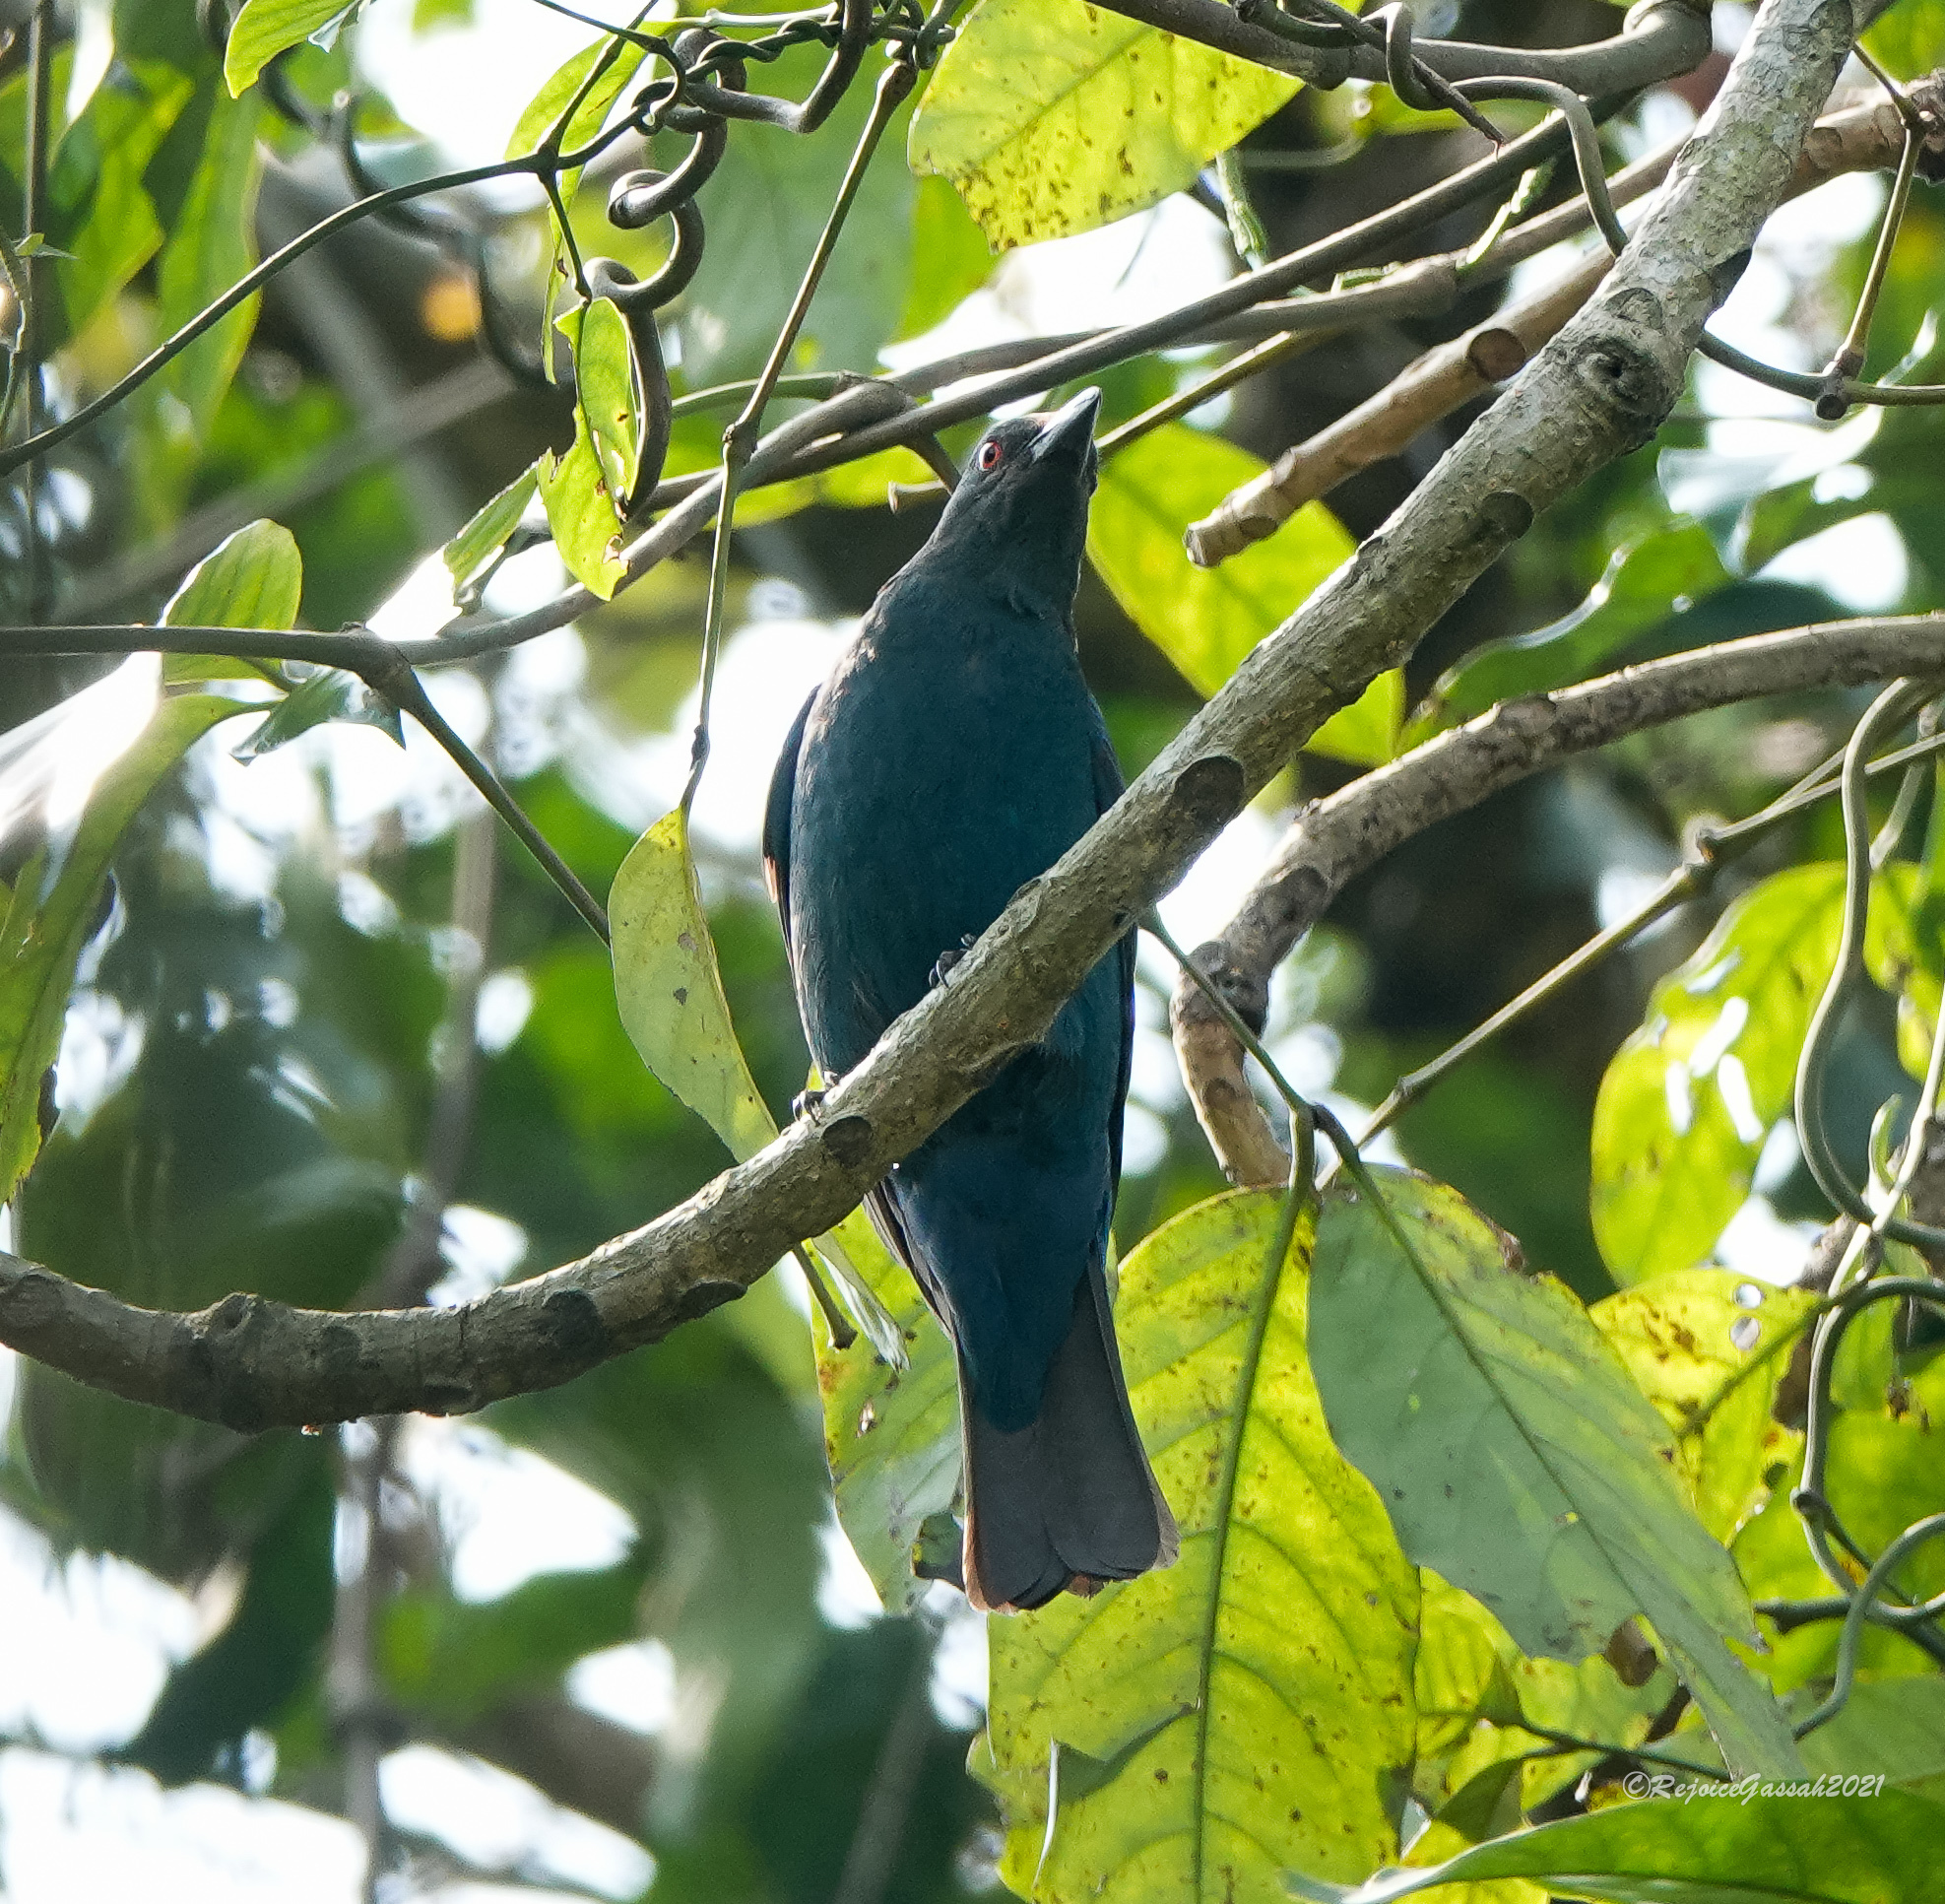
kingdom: Animalia
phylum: Chordata
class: Aves
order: Passeriformes
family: Irenidae
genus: Irena
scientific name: Irena puella
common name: Asian fairy-bluebird
